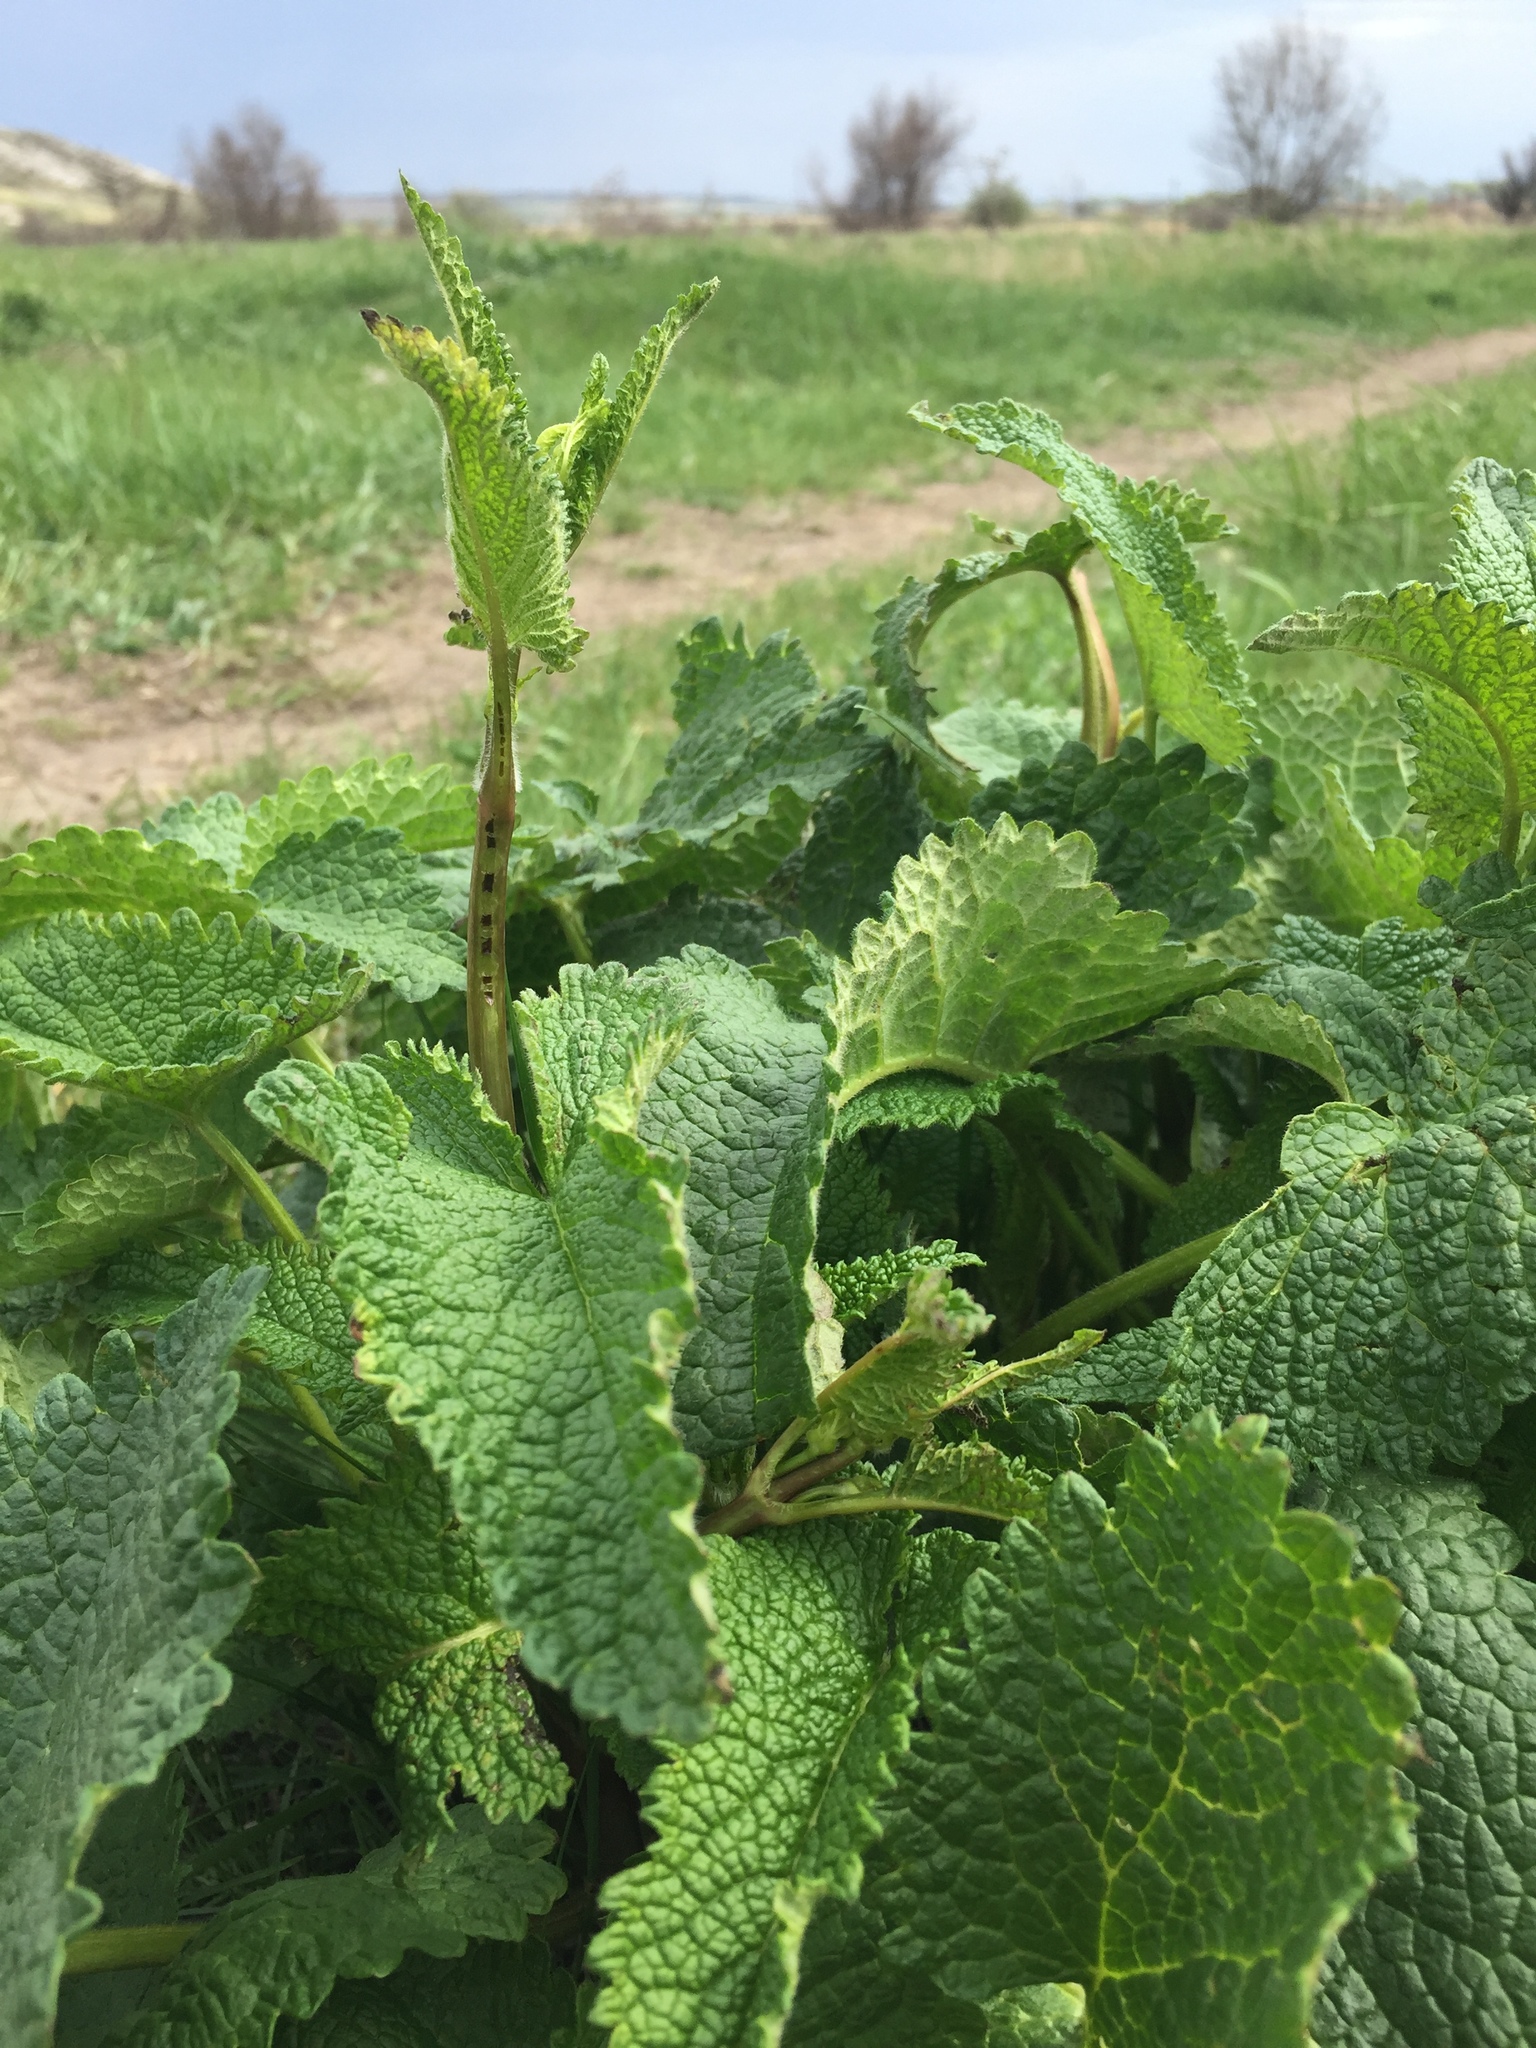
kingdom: Plantae
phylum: Tracheophyta
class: Magnoliopsida
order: Lamiales
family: Lamiaceae
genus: Phlomoides
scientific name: Phlomoides tuberosa
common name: Tuberous jerusalem sage
